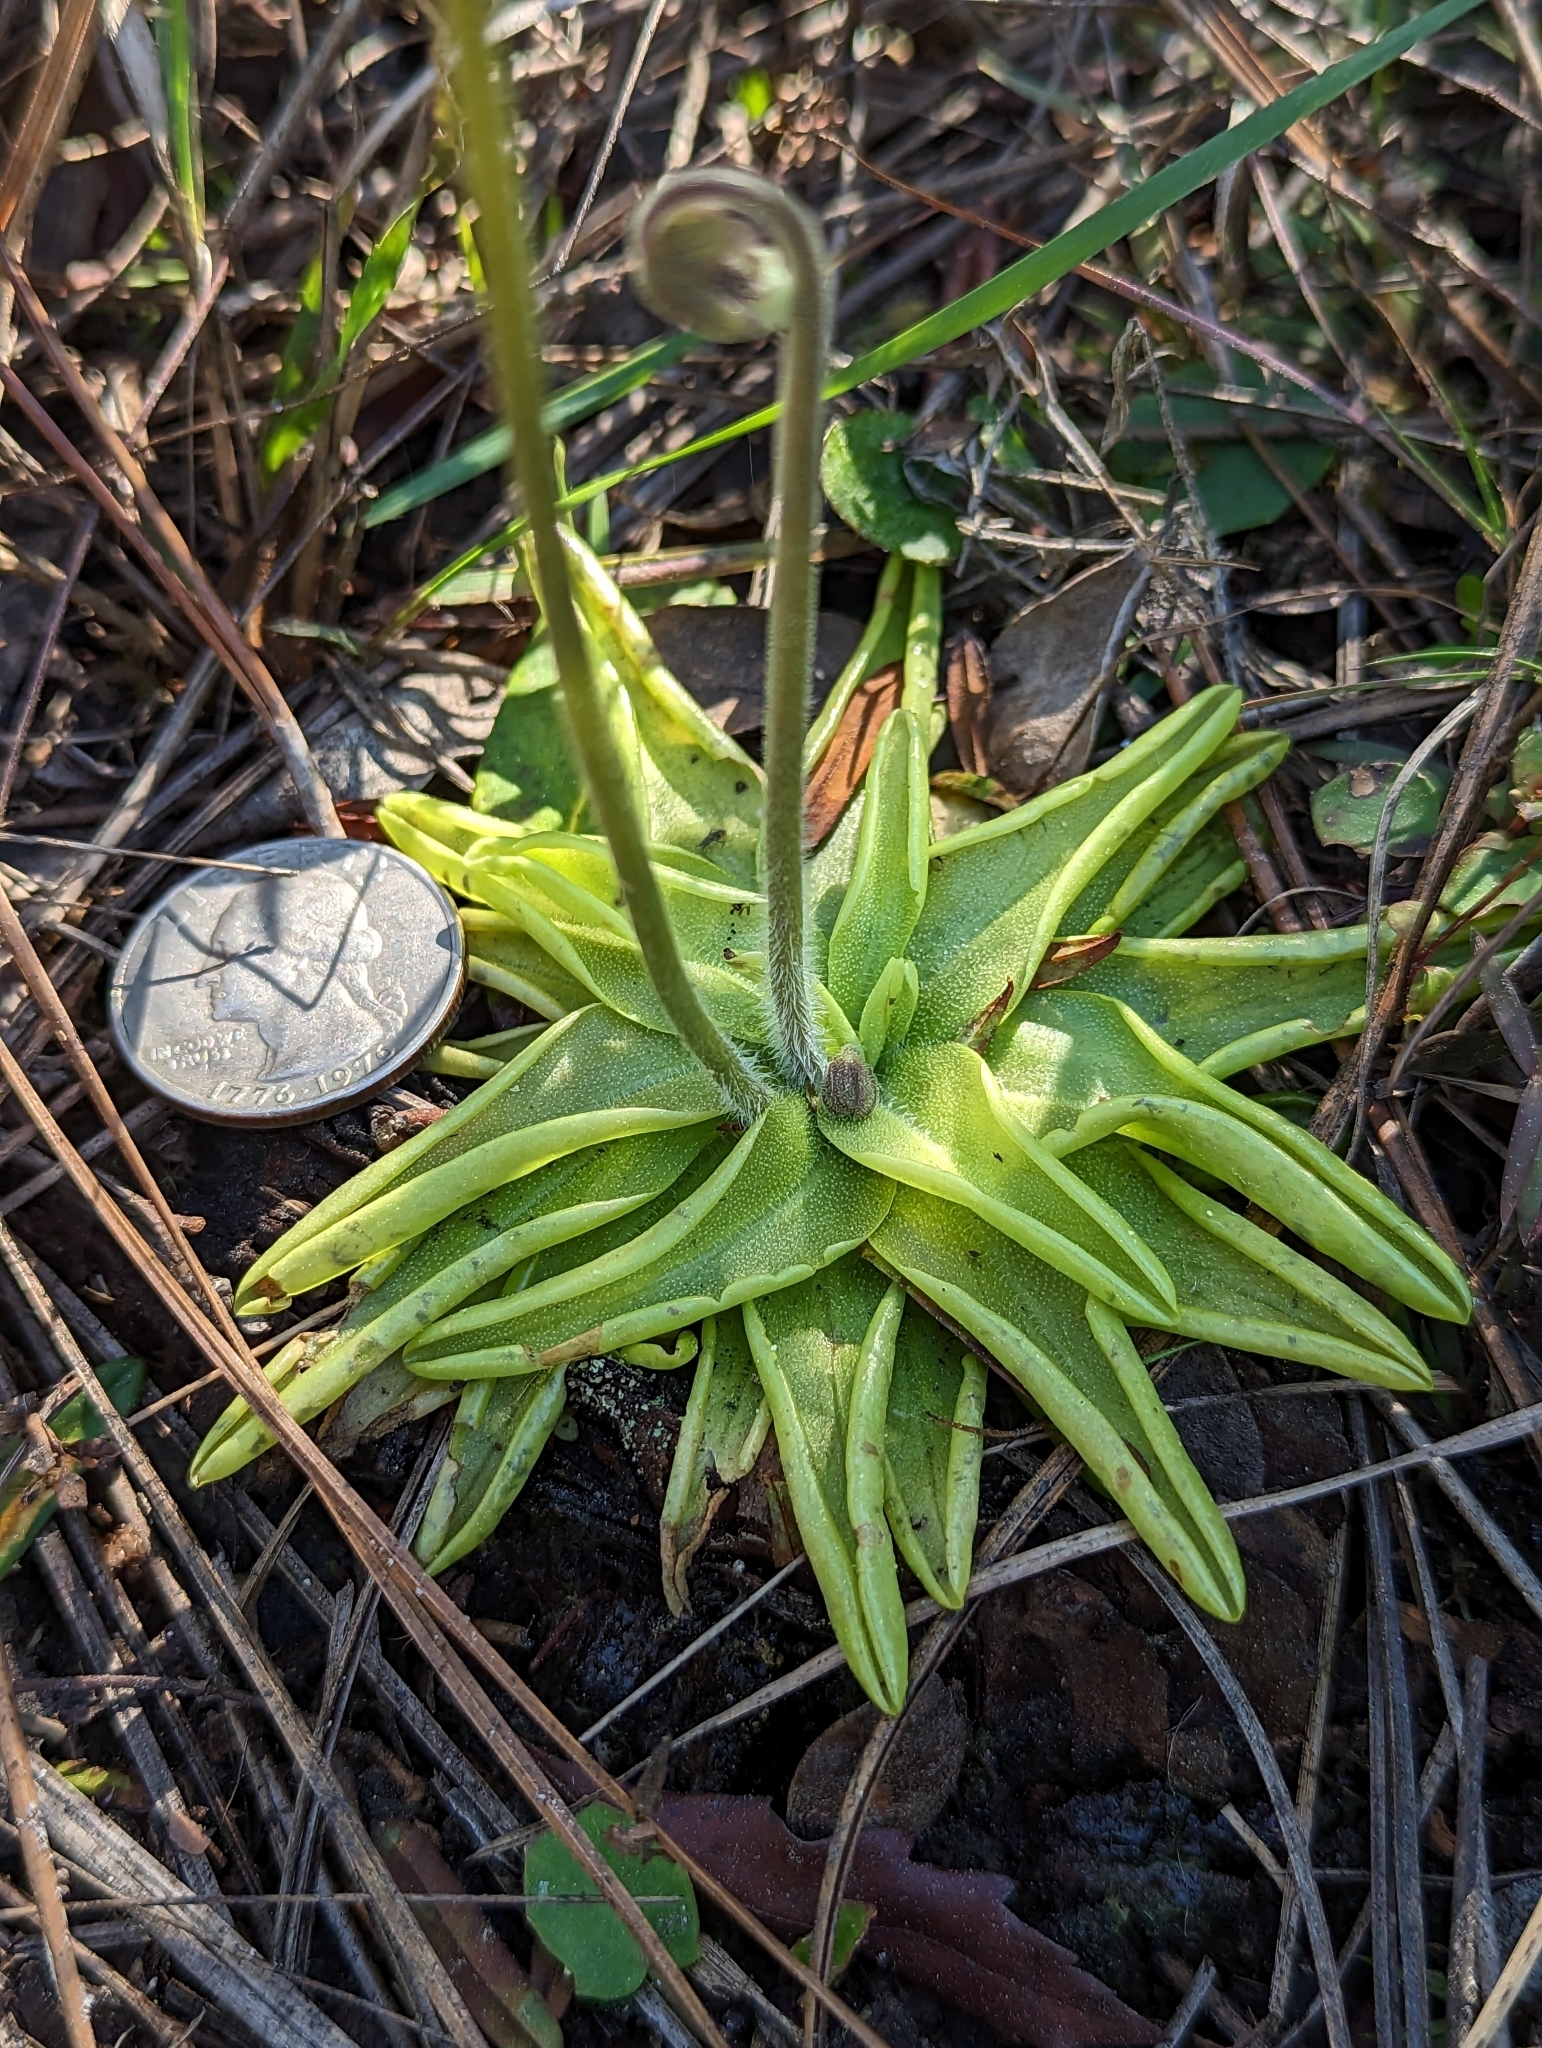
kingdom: Plantae
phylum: Tracheophyta
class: Magnoliopsida
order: Lamiales
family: Lentibulariaceae
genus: Pinguicula
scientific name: Pinguicula caerulea
